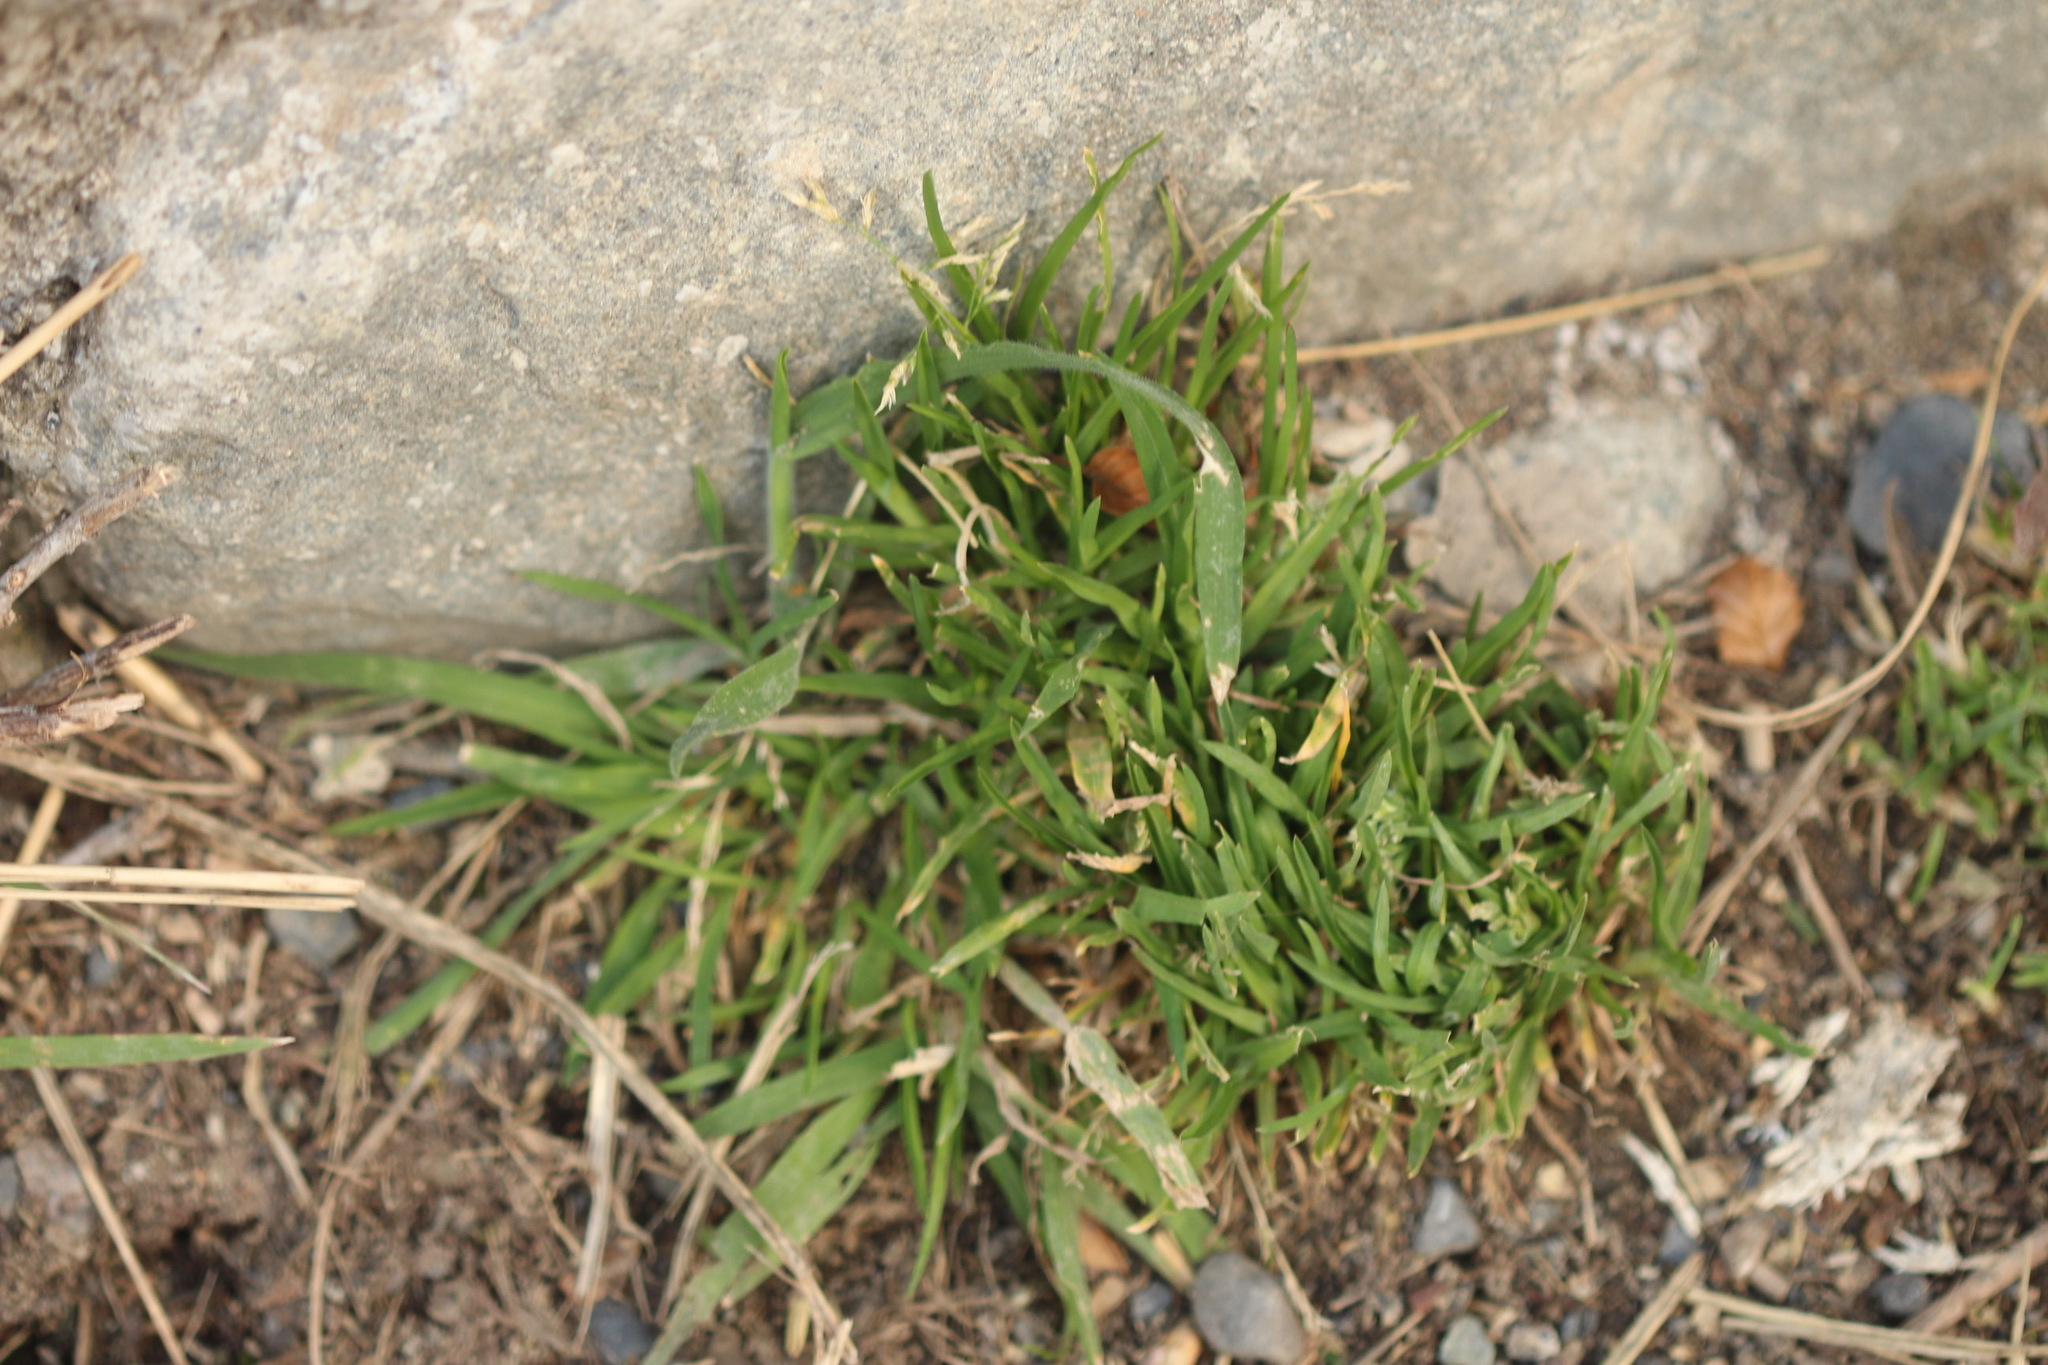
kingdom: Plantae
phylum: Tracheophyta
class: Liliopsida
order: Poales
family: Poaceae
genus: Poa
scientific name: Poa annua
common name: Annual bluegrass
